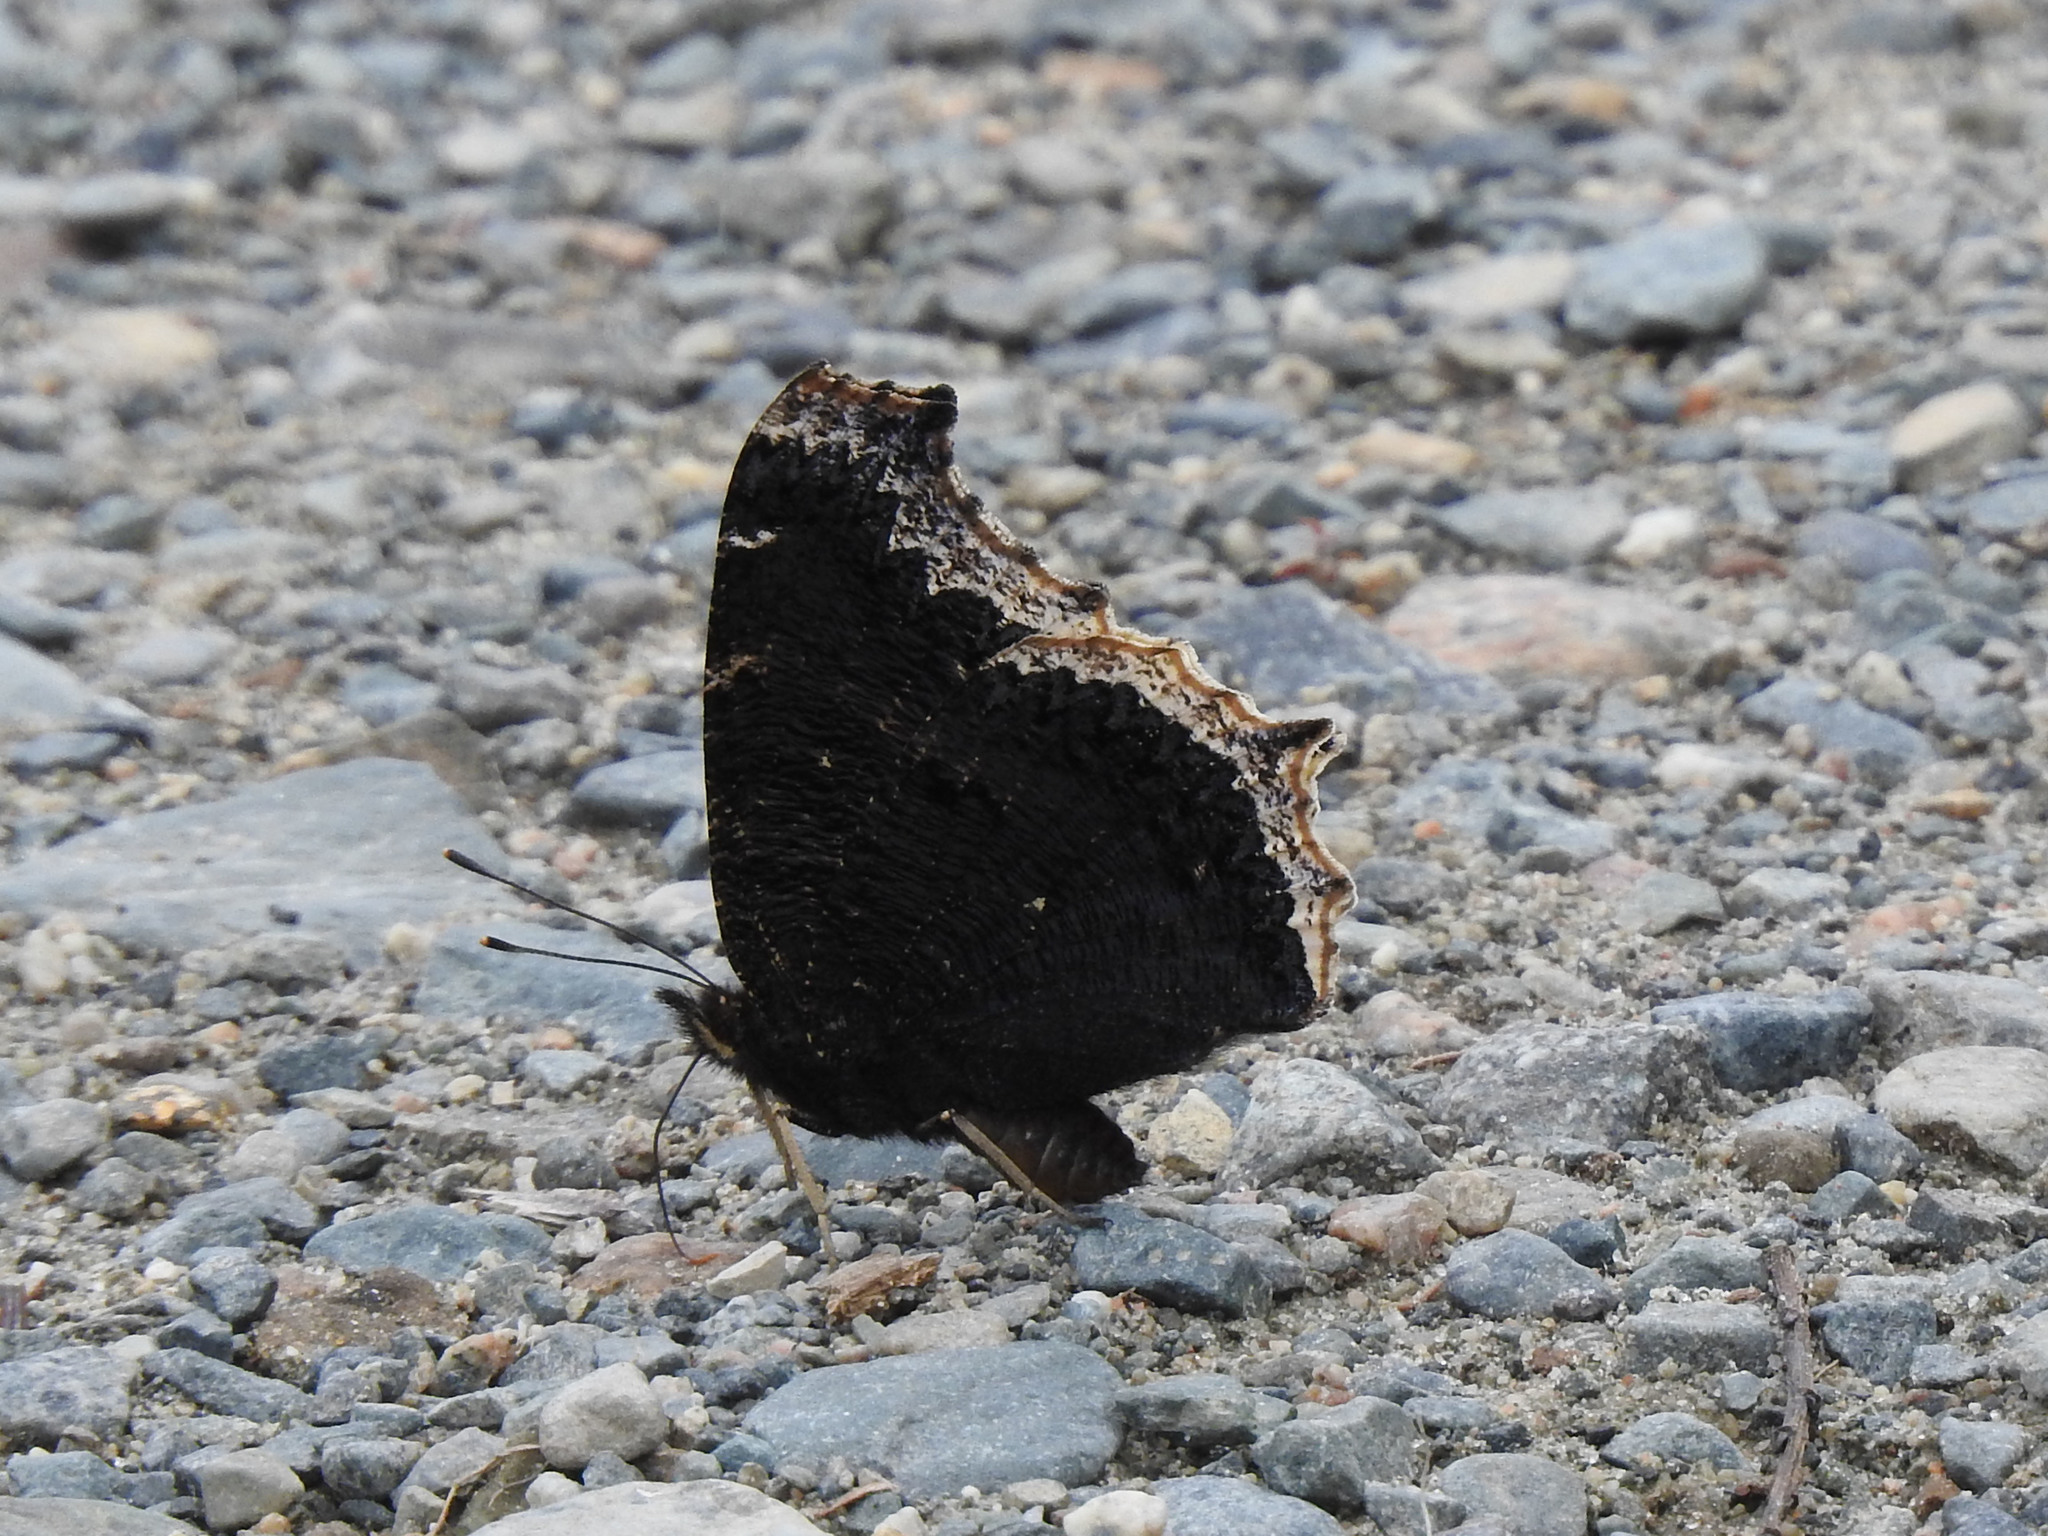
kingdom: Animalia
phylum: Arthropoda
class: Insecta
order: Lepidoptera
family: Nymphalidae
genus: Nymphalis
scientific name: Nymphalis antiopa
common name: Camberwell beauty
